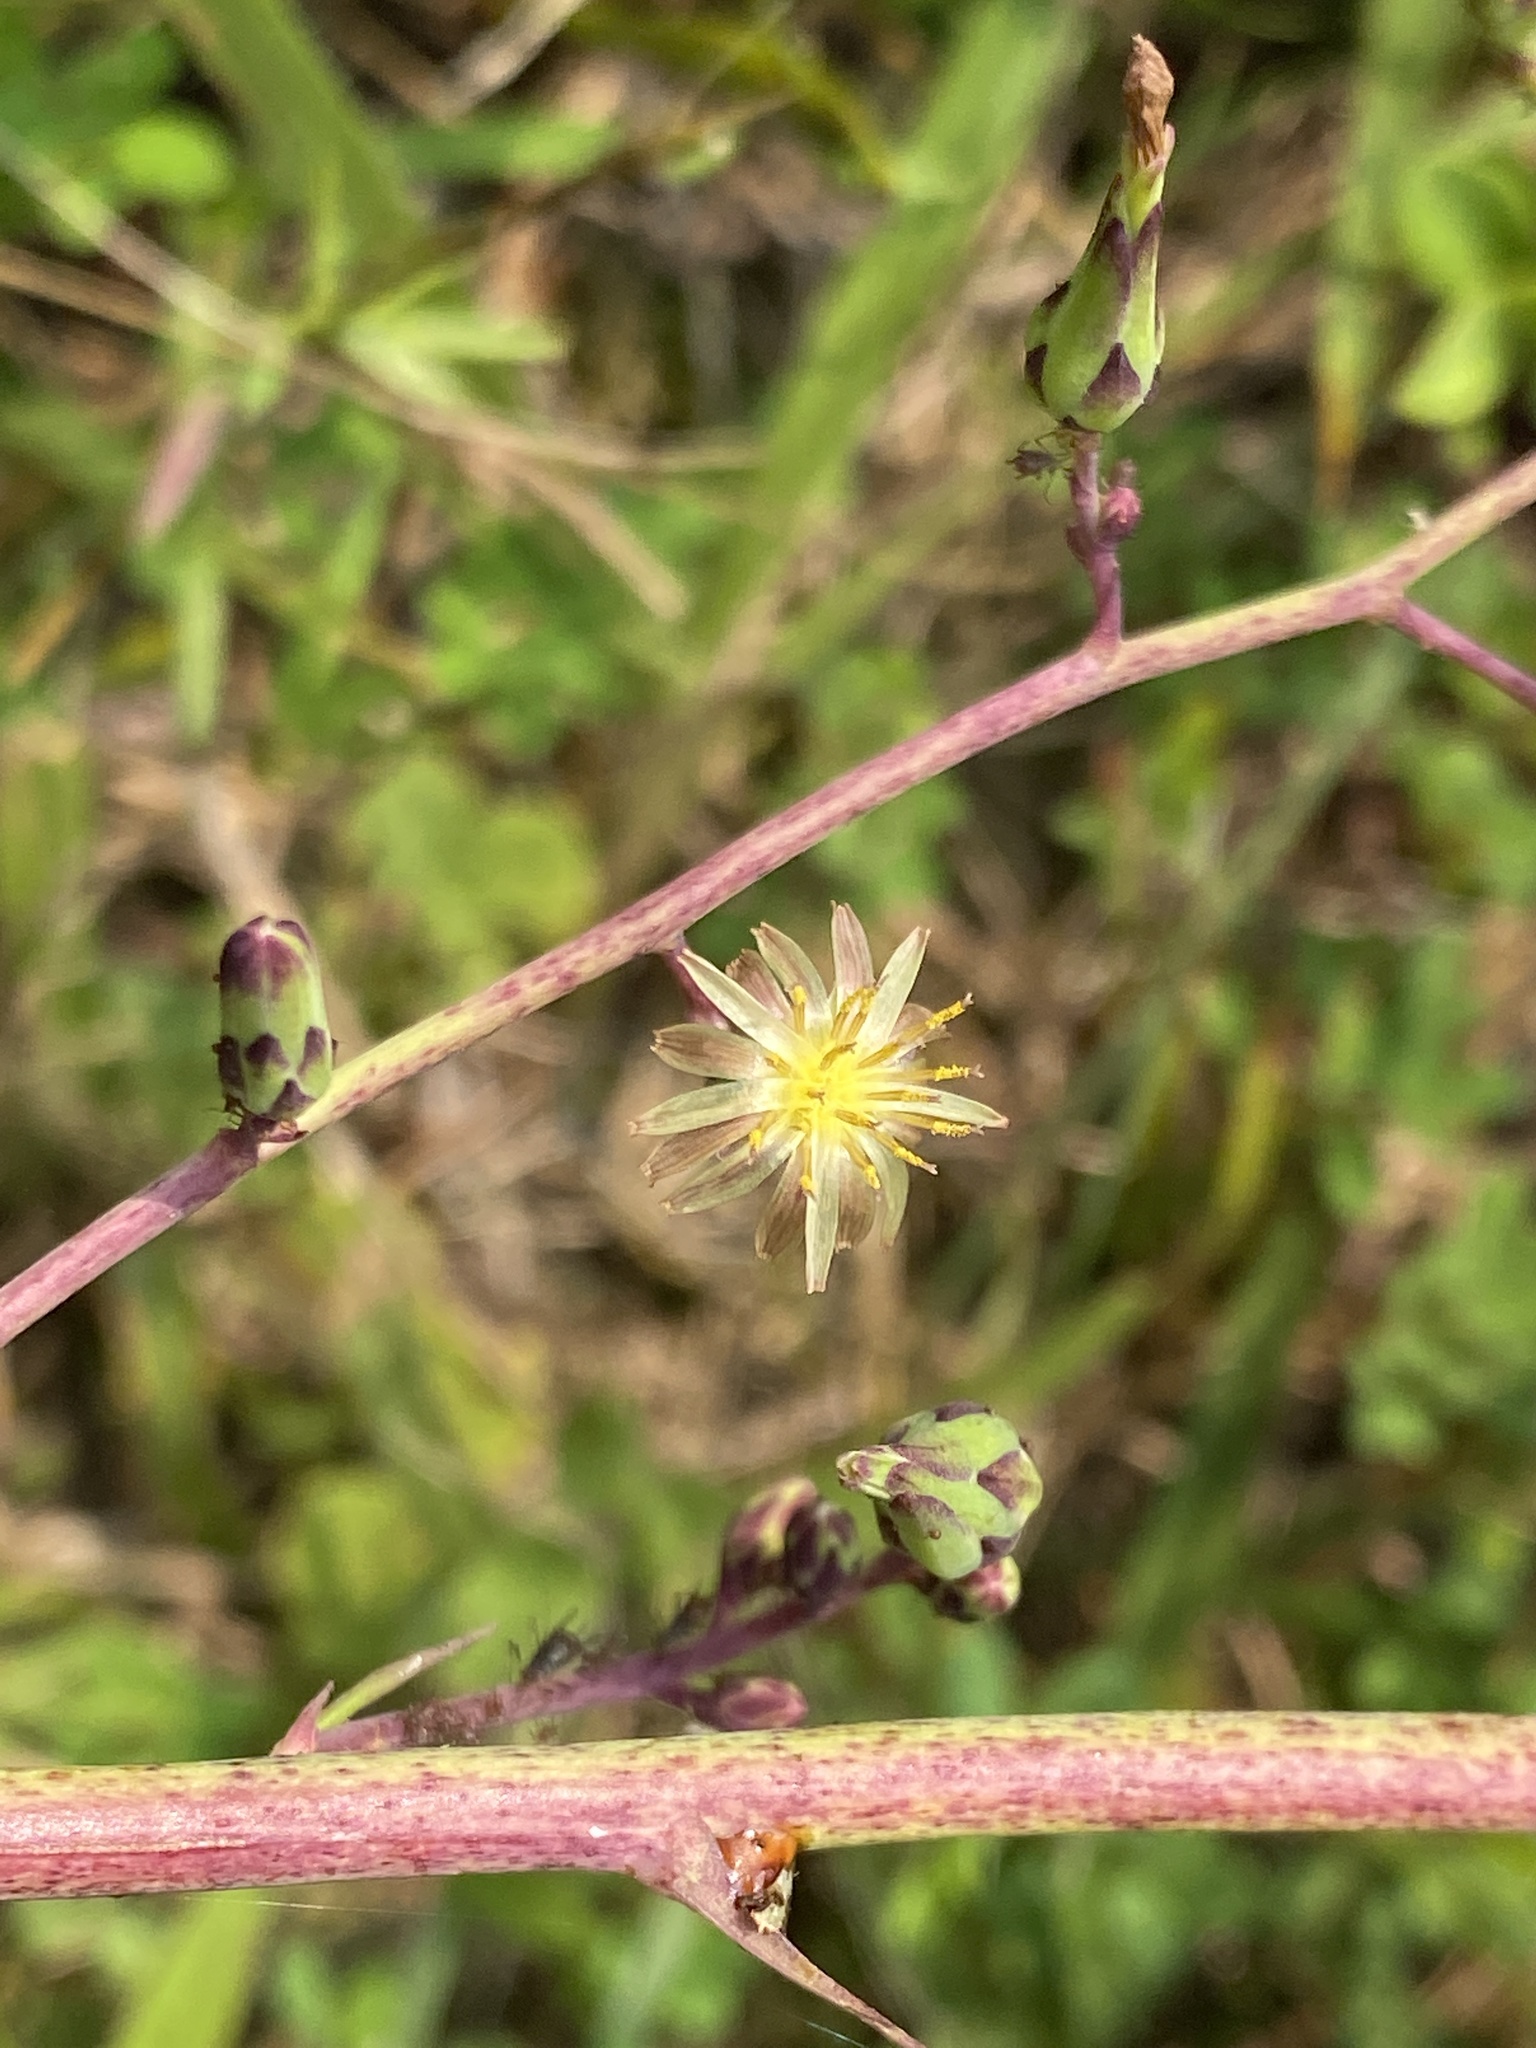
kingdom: Plantae
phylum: Tracheophyta
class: Magnoliopsida
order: Asterales
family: Asteraceae
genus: Lactuca
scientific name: Lactuca canadensis
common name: Canada lettuce
